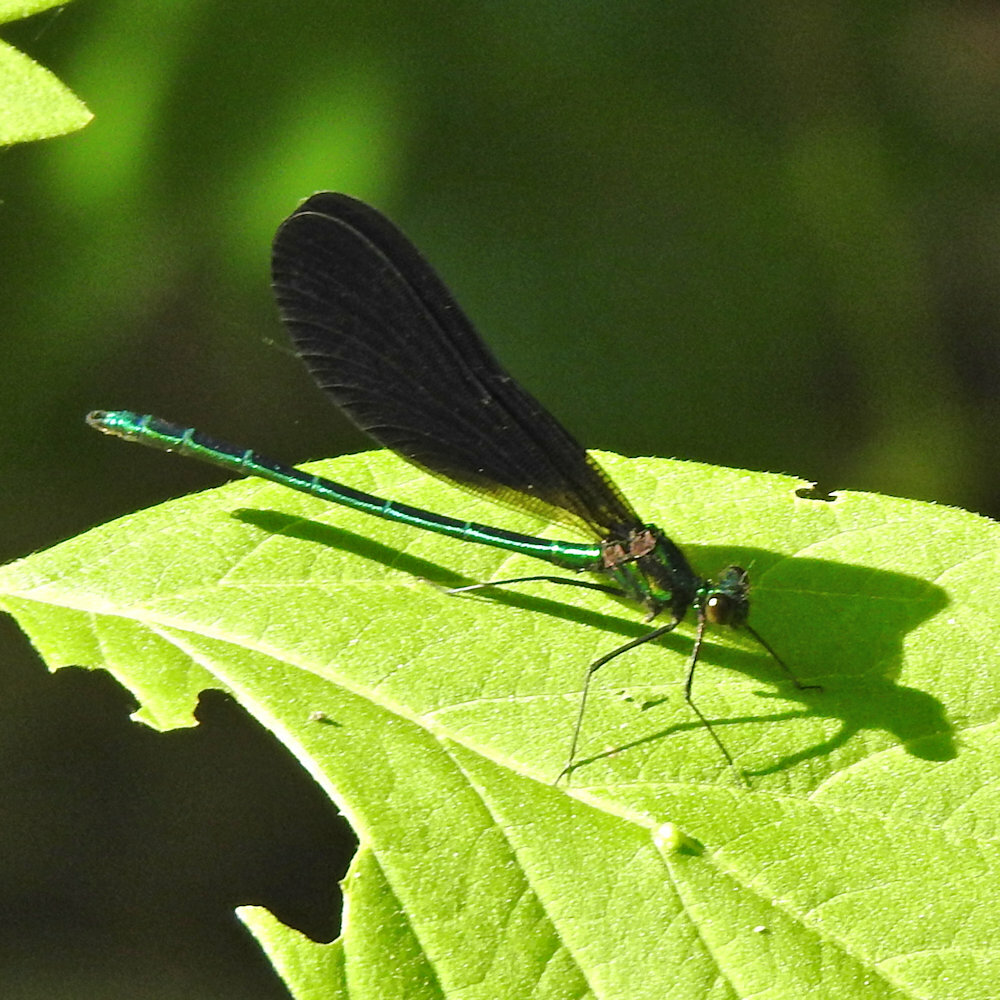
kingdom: Animalia
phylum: Arthropoda
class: Insecta
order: Odonata
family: Calopterygidae
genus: Calopteryx
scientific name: Calopteryx maculata
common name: Ebony jewelwing
